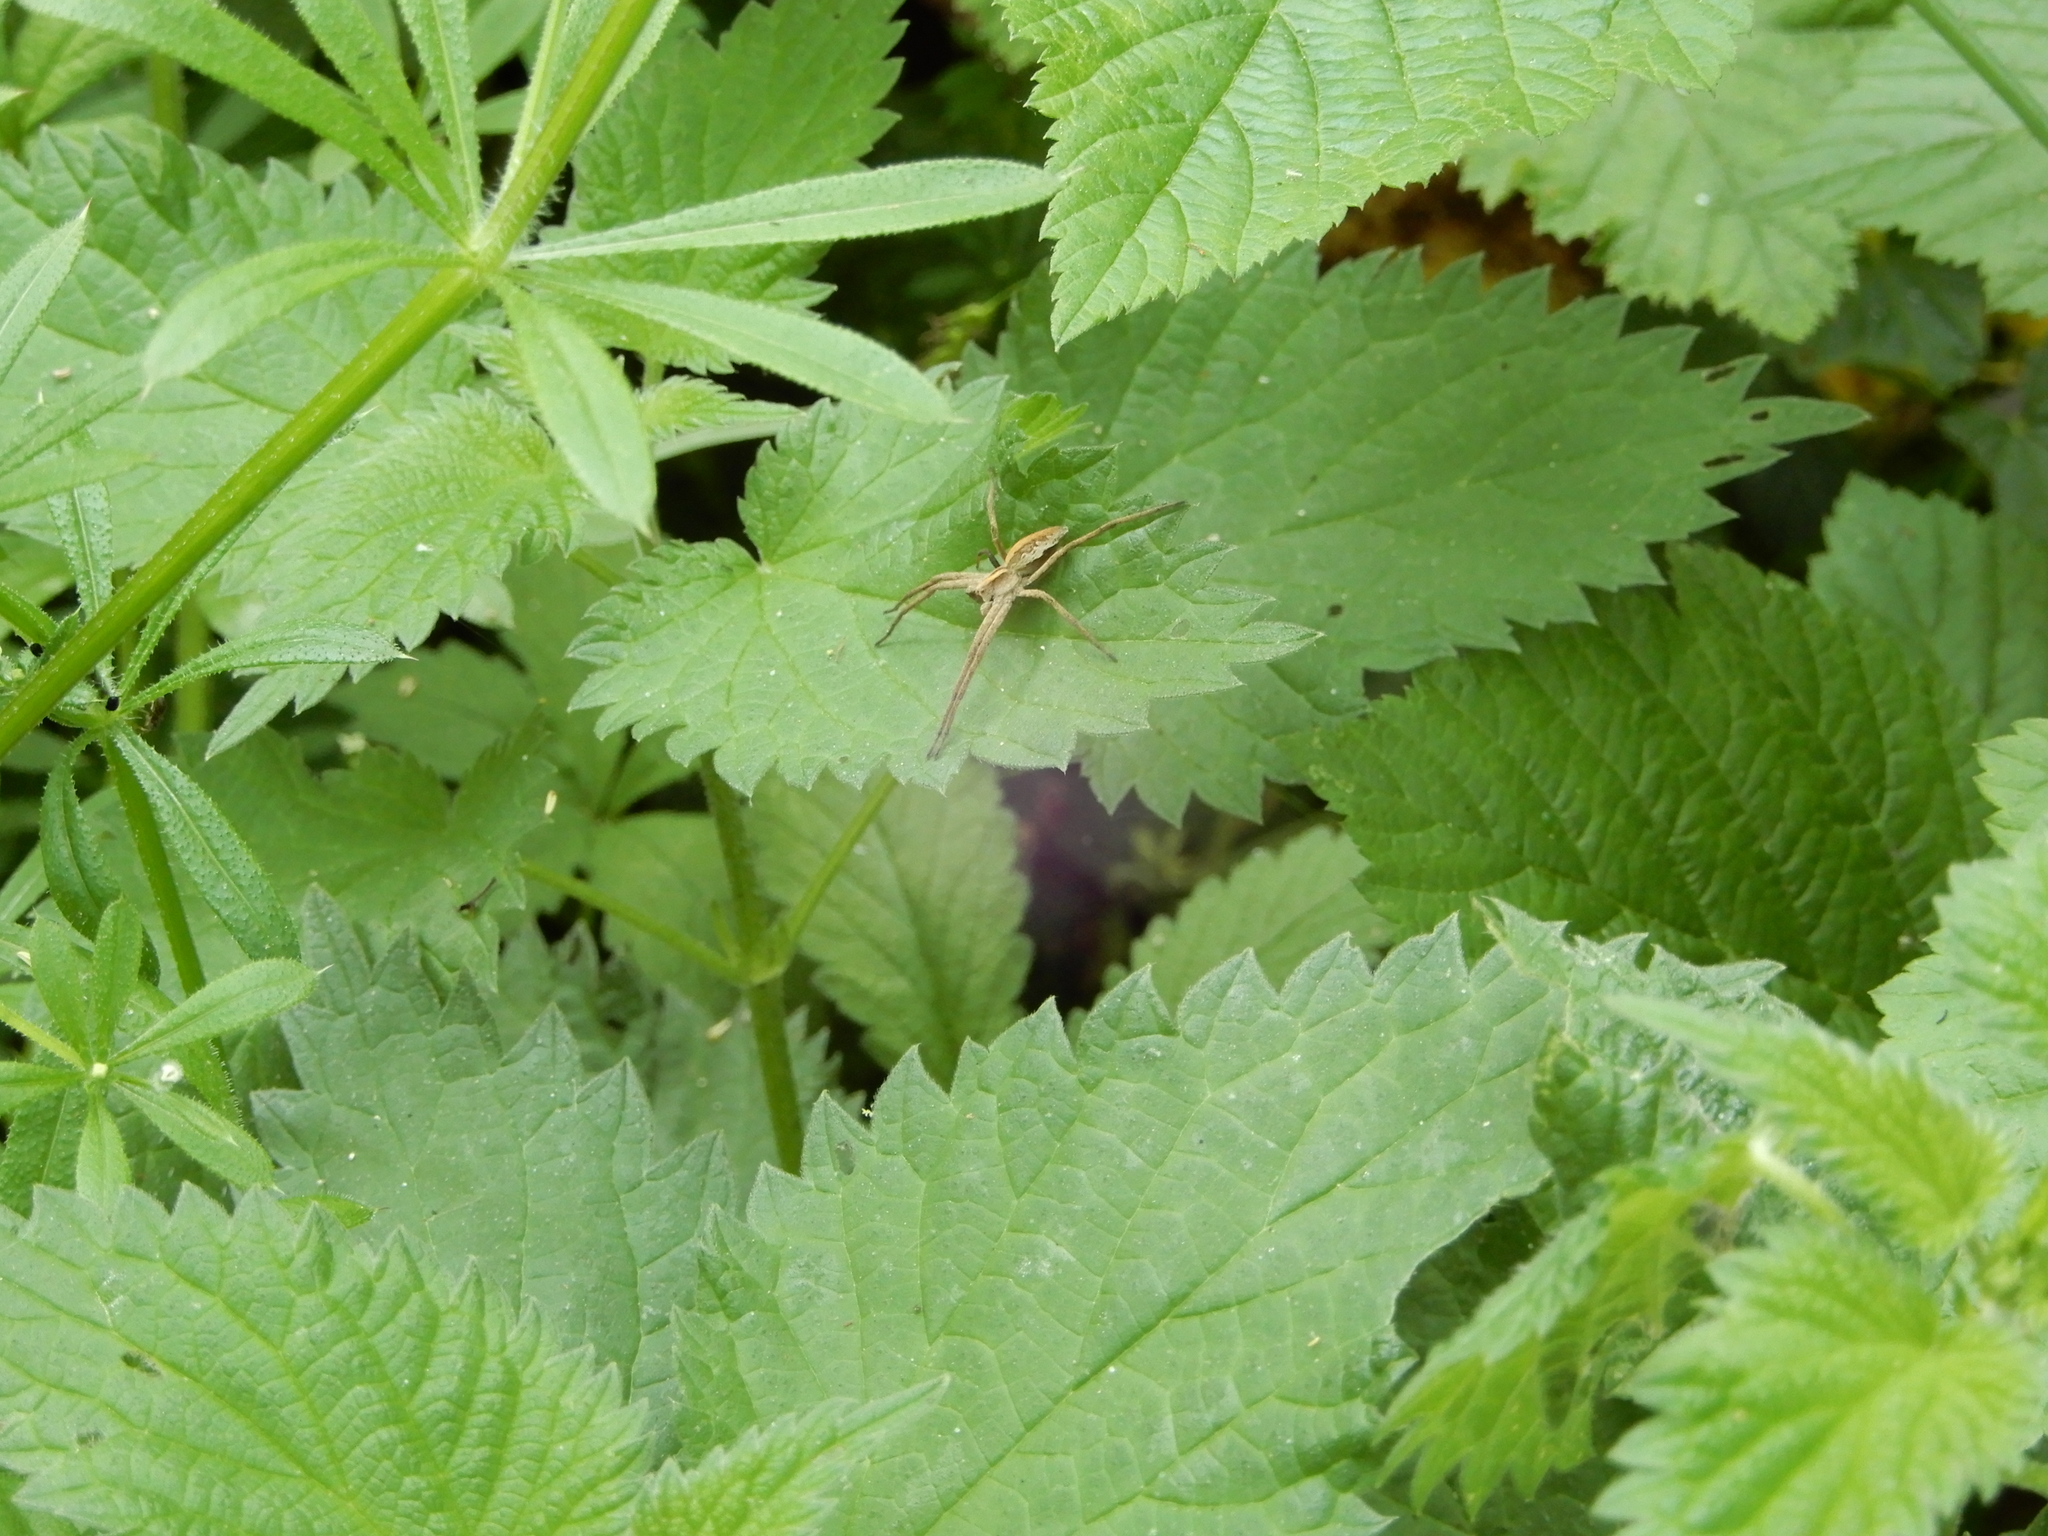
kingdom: Animalia
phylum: Arthropoda
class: Arachnida
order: Araneae
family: Pisauridae
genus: Pisaura
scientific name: Pisaura mirabilis
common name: Tent spider
